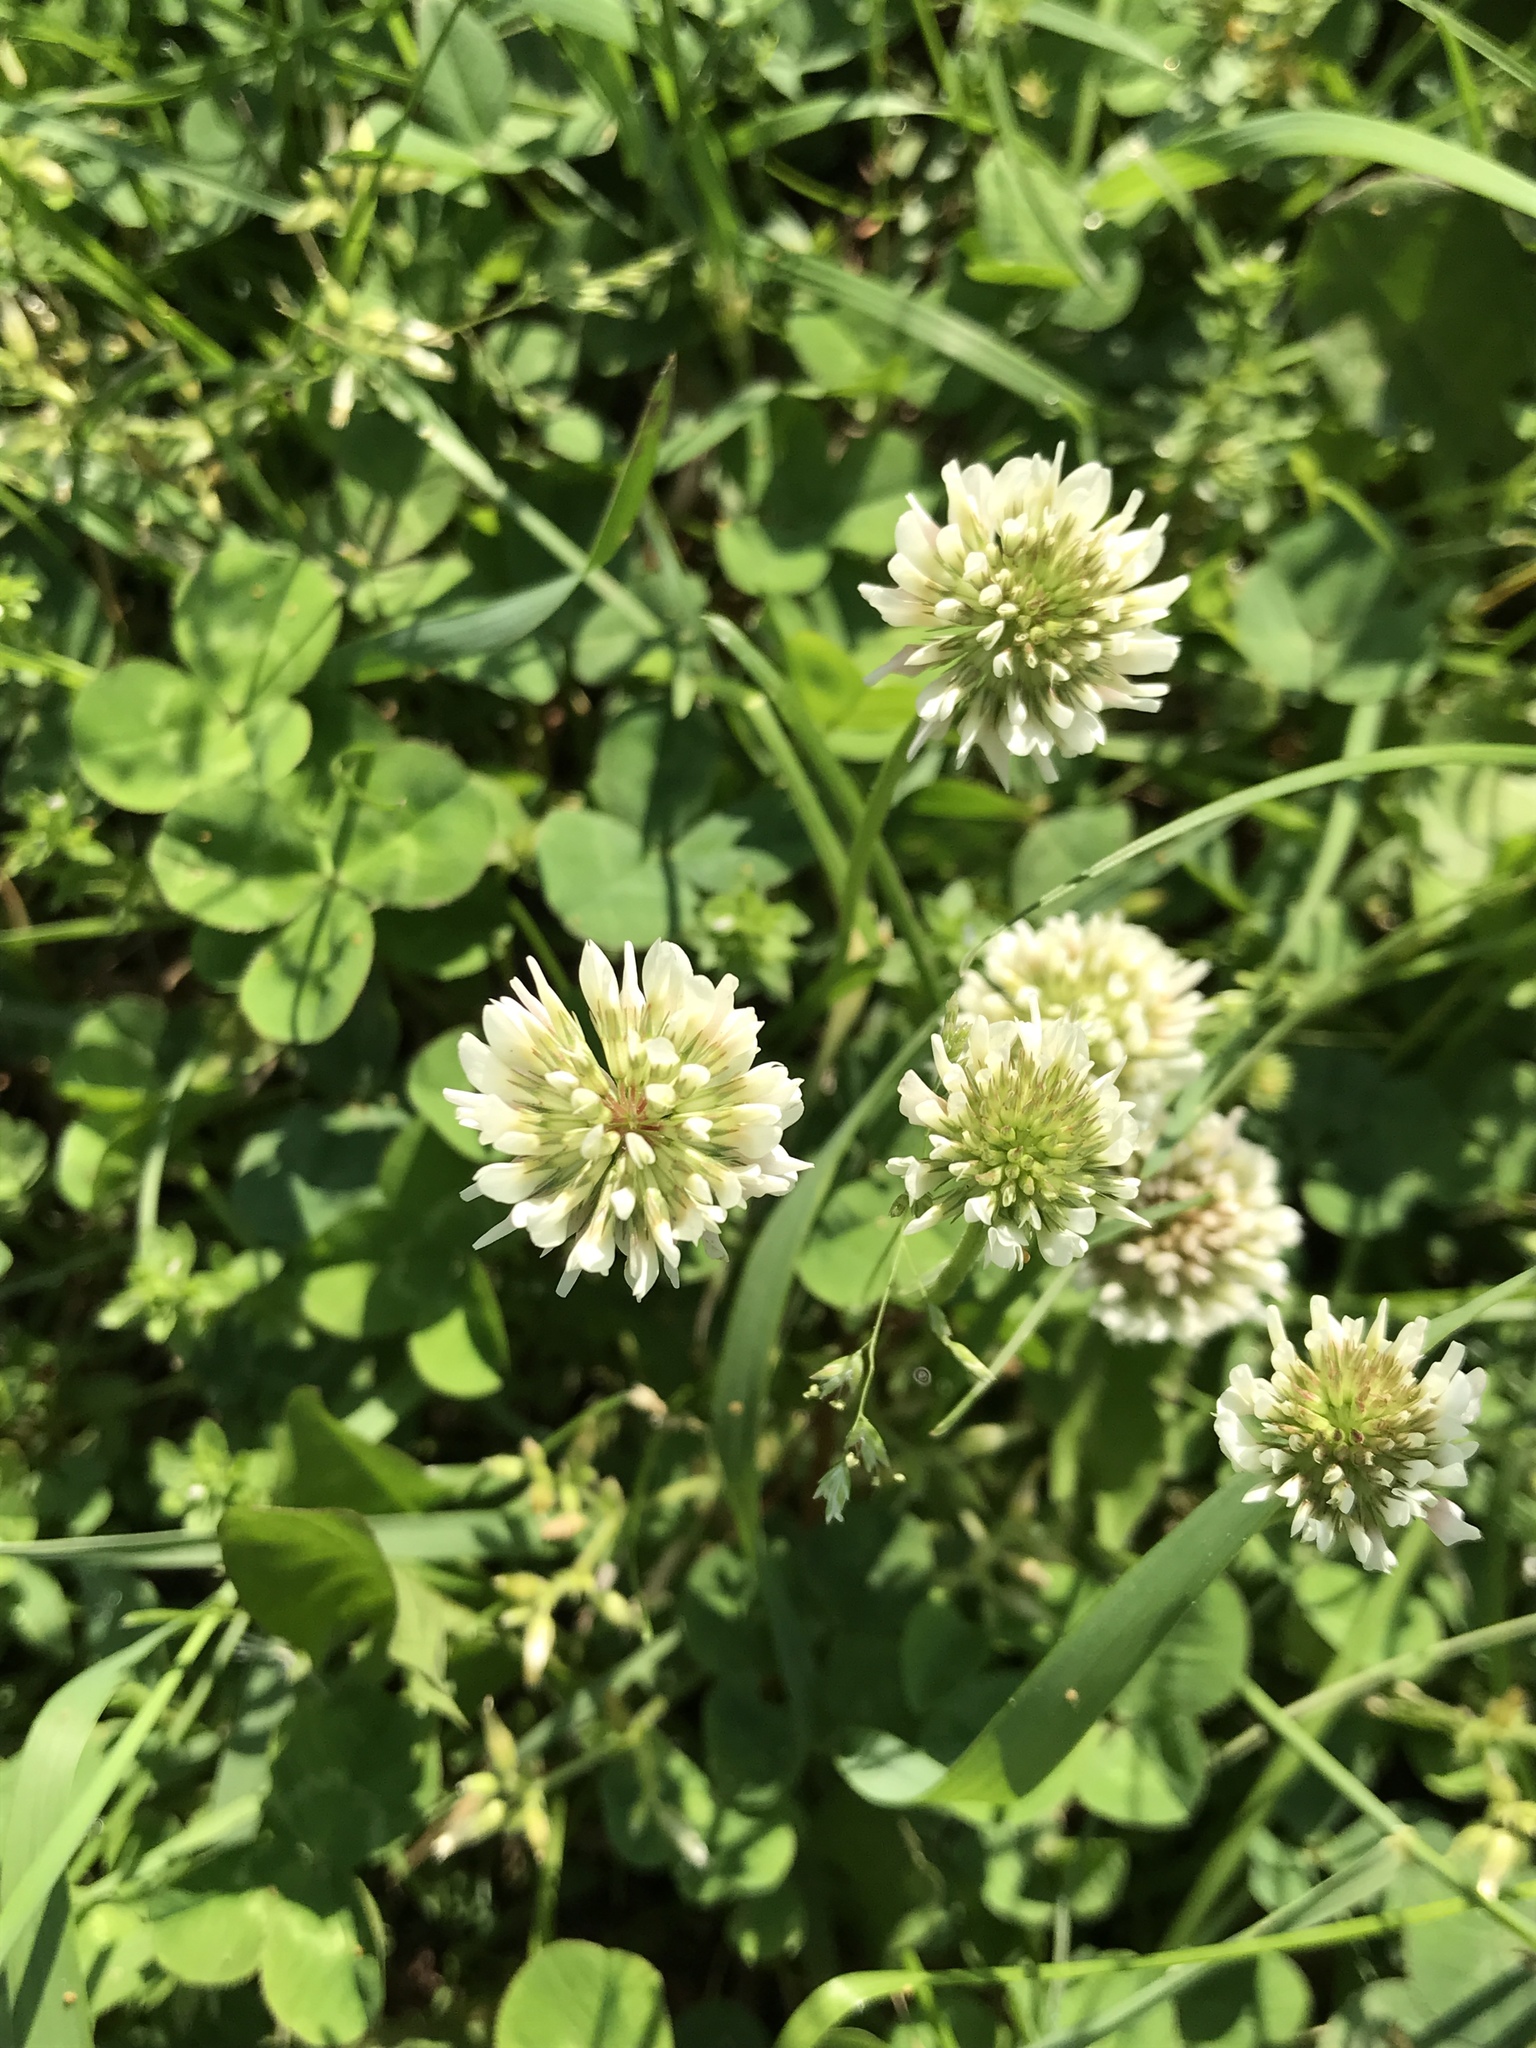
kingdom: Plantae
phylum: Tracheophyta
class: Magnoliopsida
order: Fabales
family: Fabaceae
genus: Trifolium
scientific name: Trifolium repens
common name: White clover
